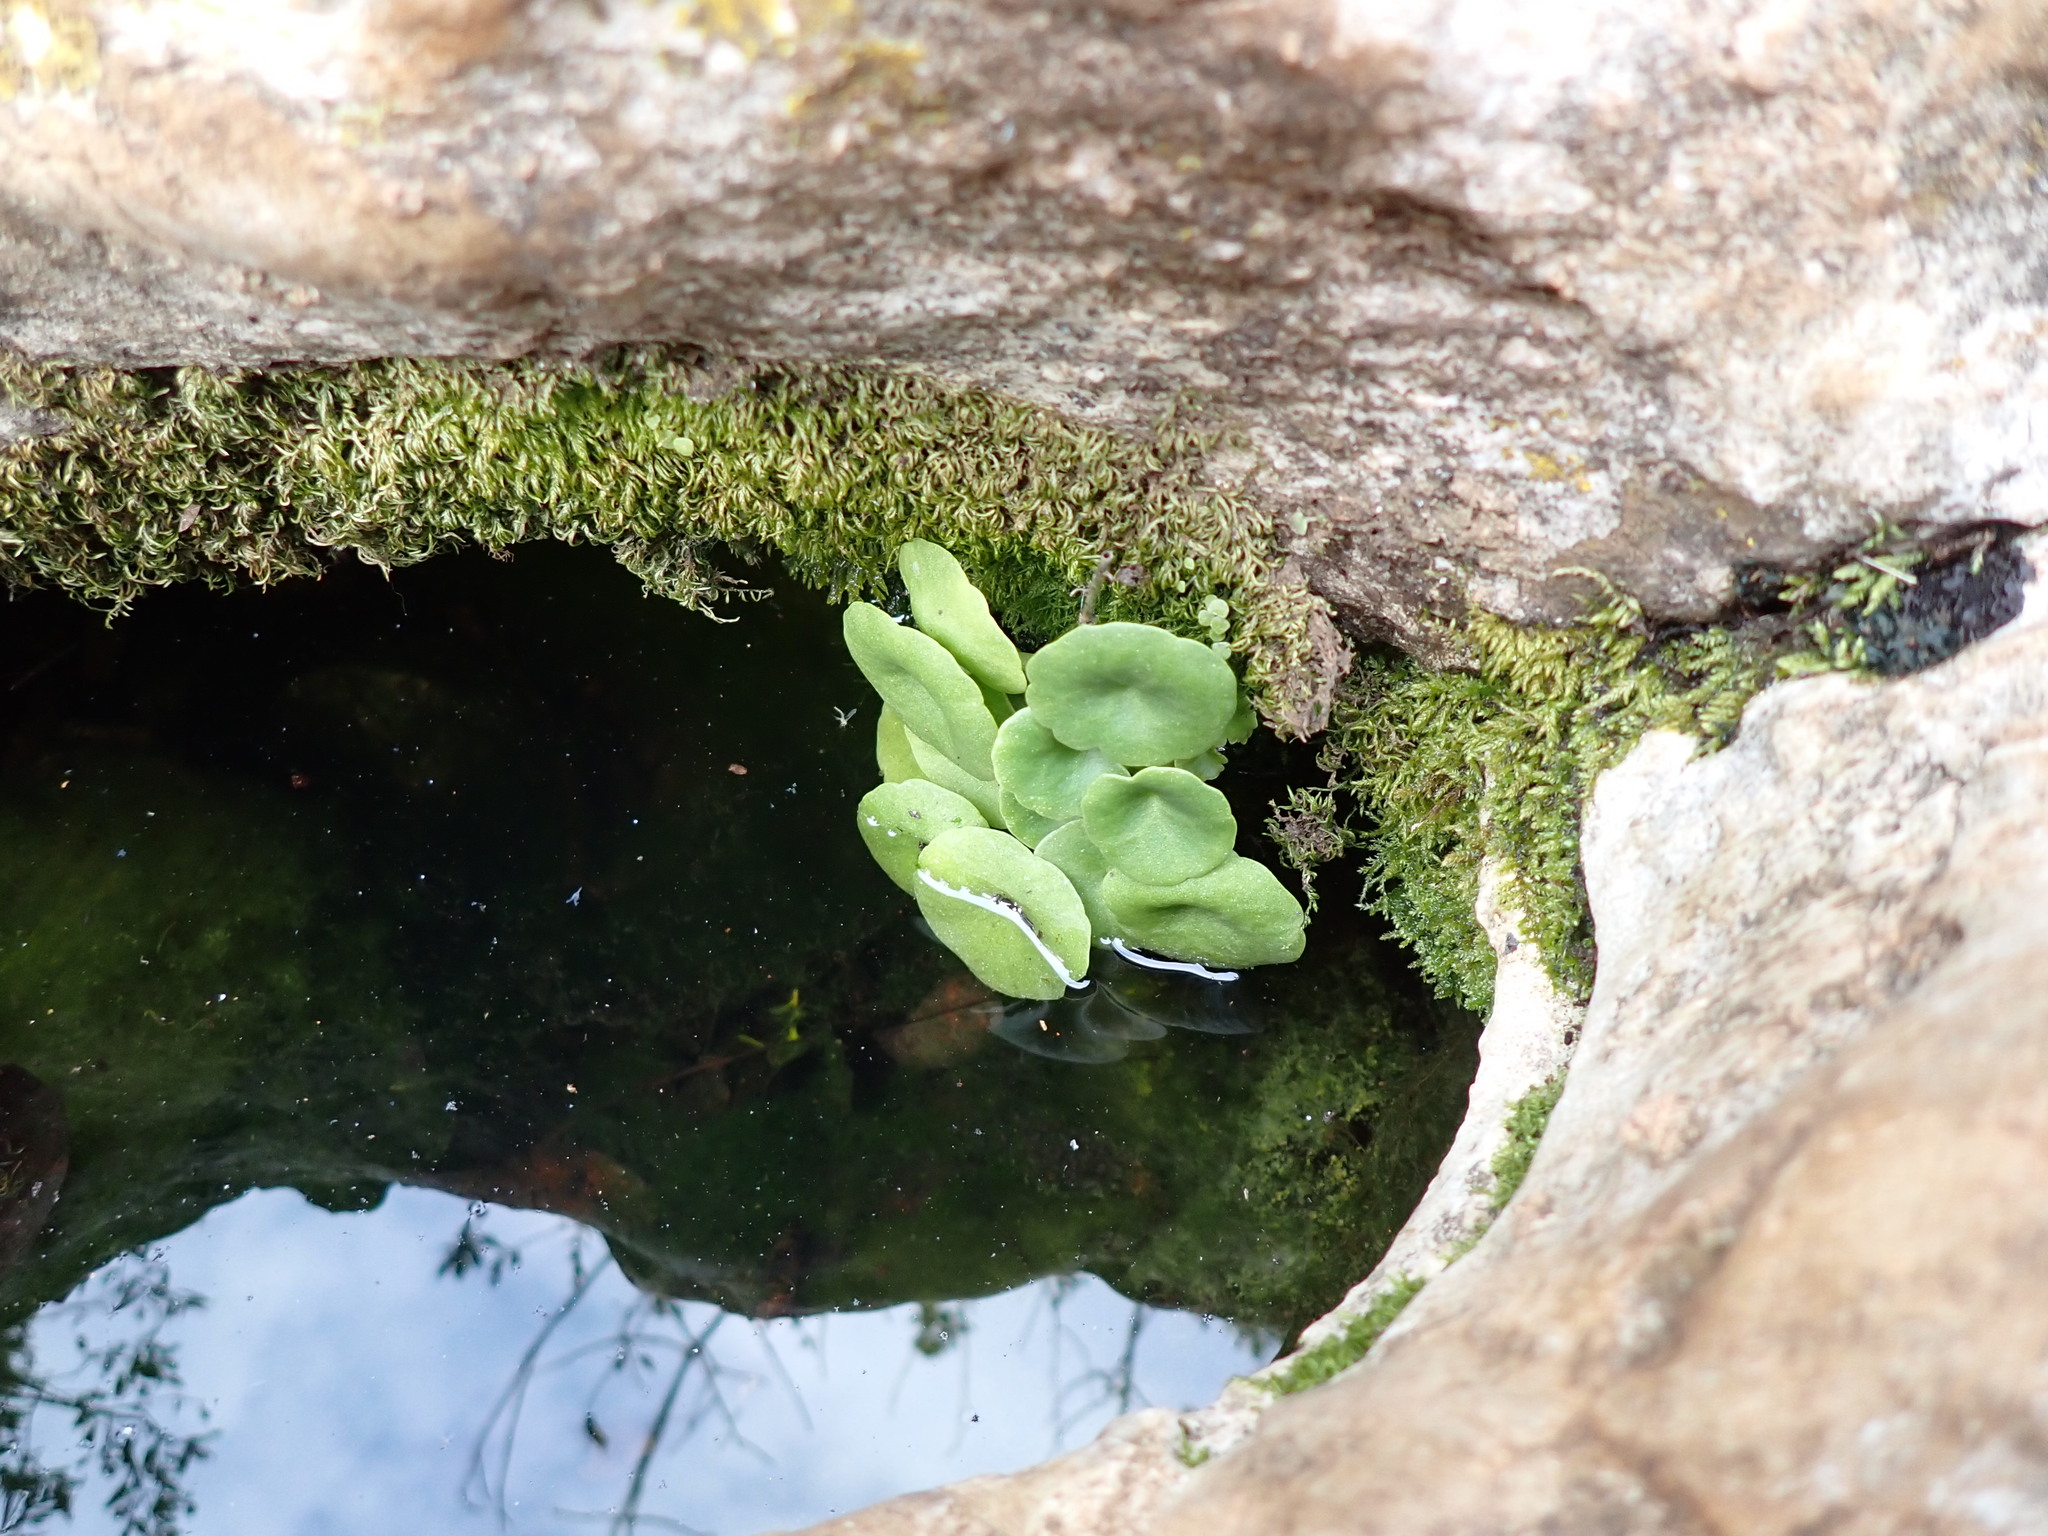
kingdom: Plantae
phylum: Tracheophyta
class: Magnoliopsida
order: Saxifragales
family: Crassulaceae
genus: Umbilicus
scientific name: Umbilicus rupestris
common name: Navelwort
